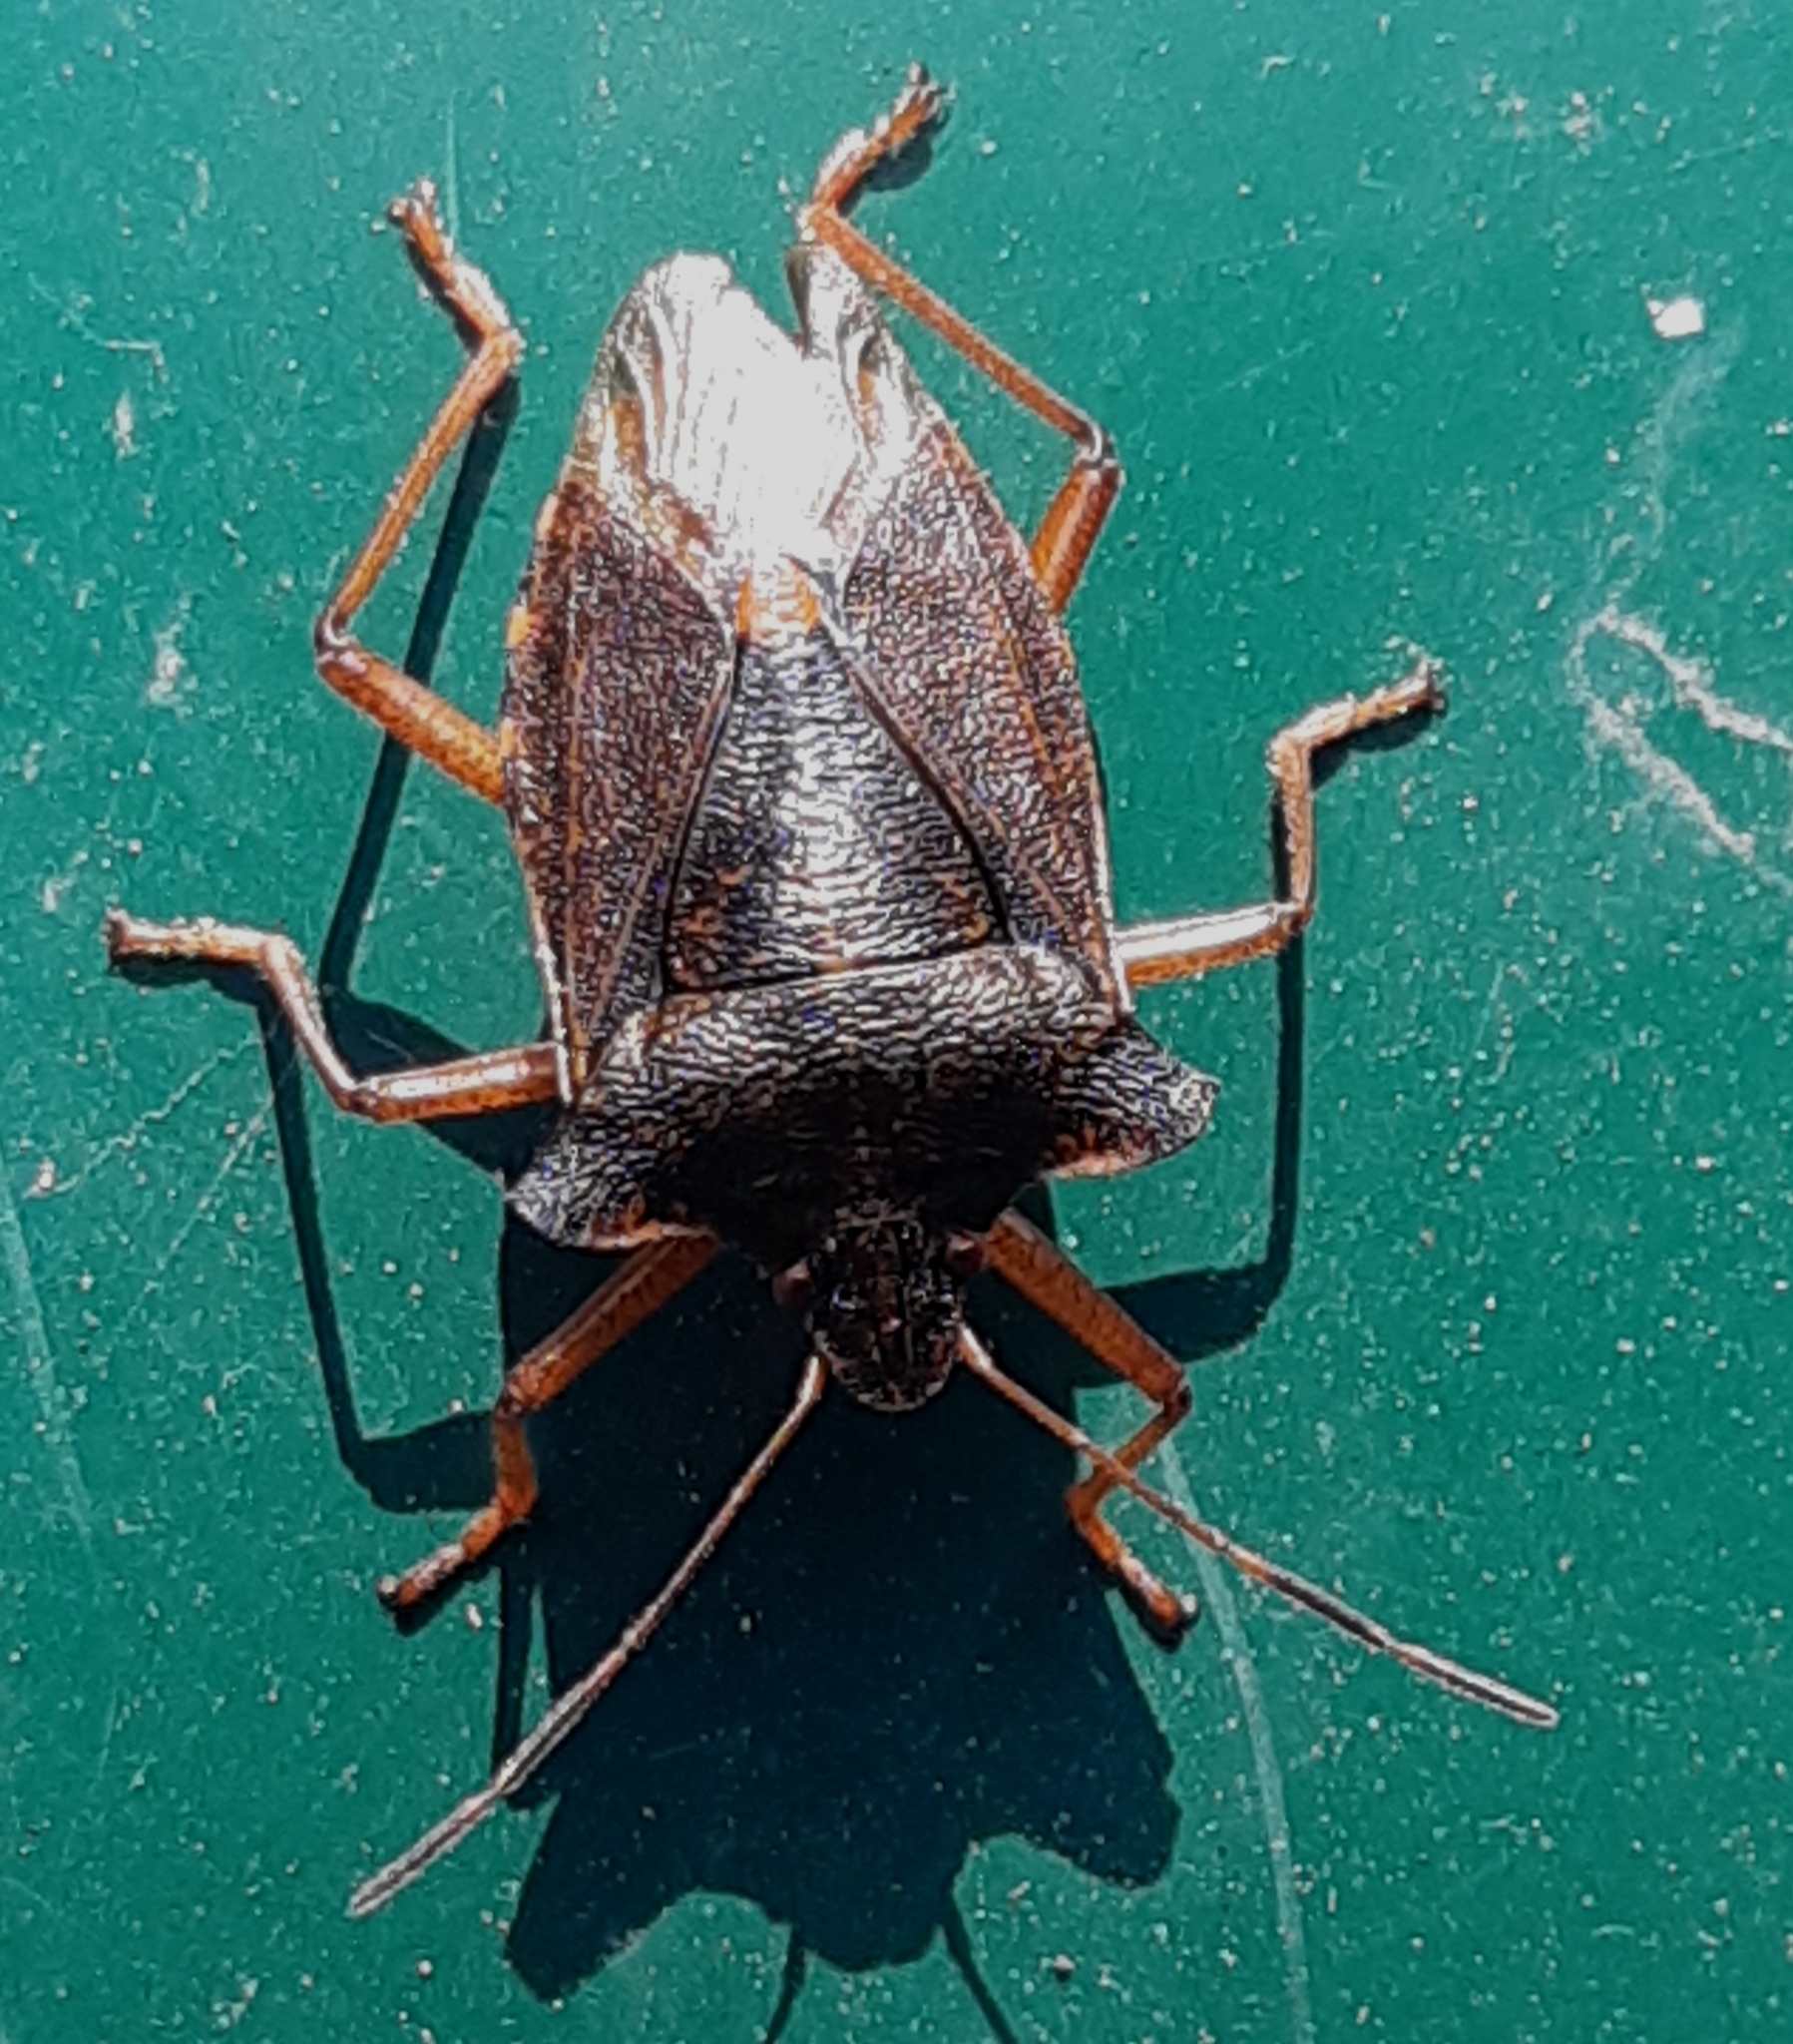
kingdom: Animalia
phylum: Arthropoda
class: Insecta
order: Hemiptera
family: Pentatomidae
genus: Pentatoma
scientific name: Pentatoma rufipes
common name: Forest bug
